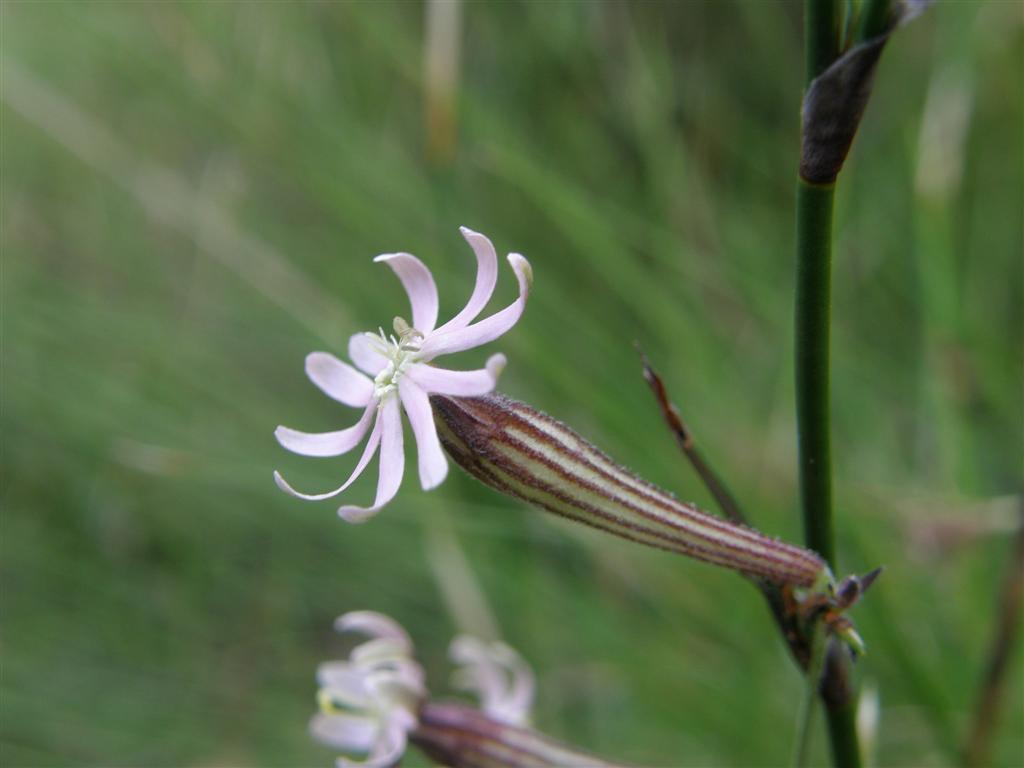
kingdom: Plantae
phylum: Tracheophyta
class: Magnoliopsida
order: Caryophyllales
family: Caryophyllaceae
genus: Silene
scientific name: Silene burchellii
